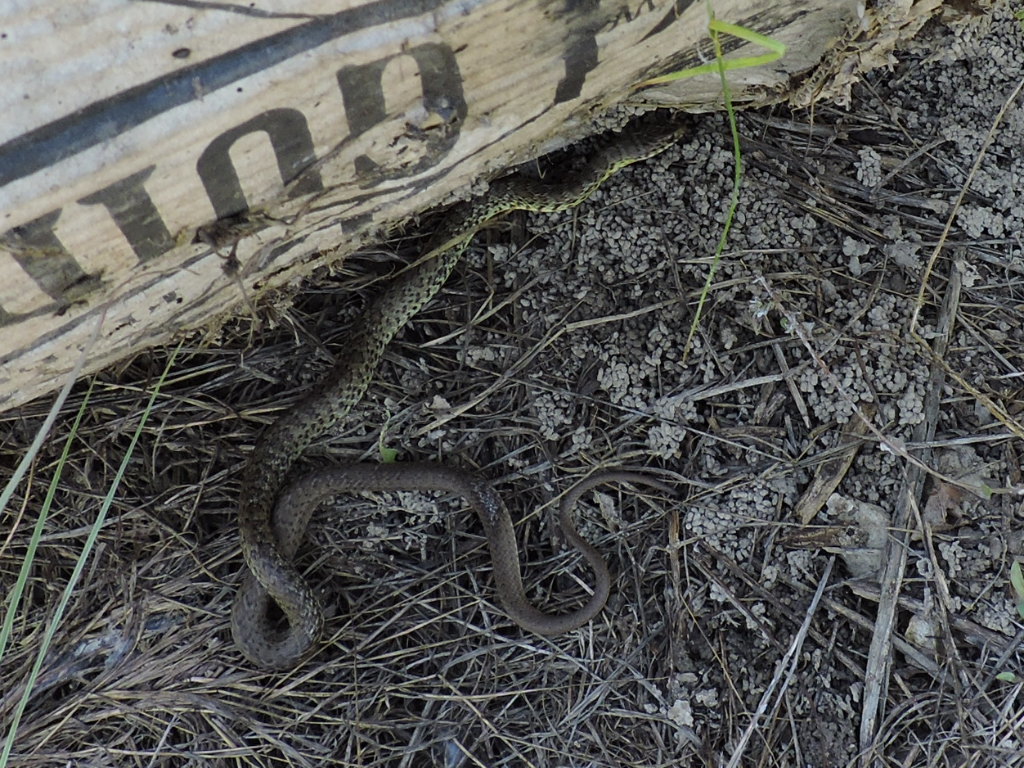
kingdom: Animalia
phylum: Chordata
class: Squamata
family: Colubridae
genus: Coluber
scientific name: Coluber constrictor
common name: Eastern racer
